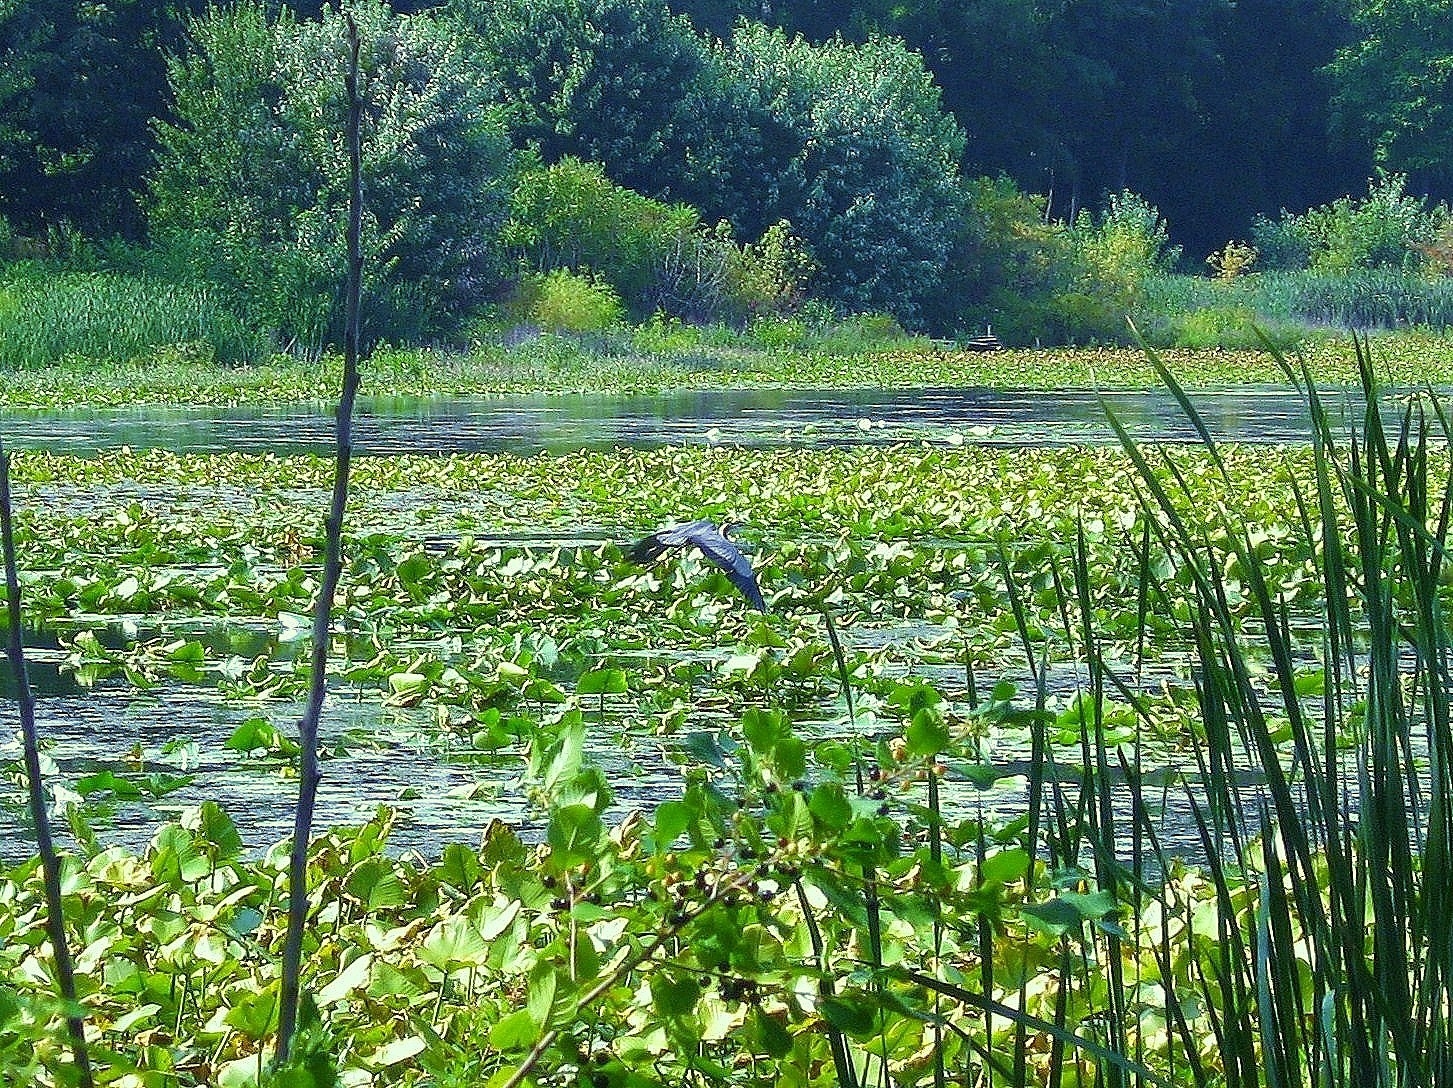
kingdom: Animalia
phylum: Chordata
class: Aves
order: Pelecaniformes
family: Ardeidae
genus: Ardea
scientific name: Ardea herodias
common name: Great blue heron
